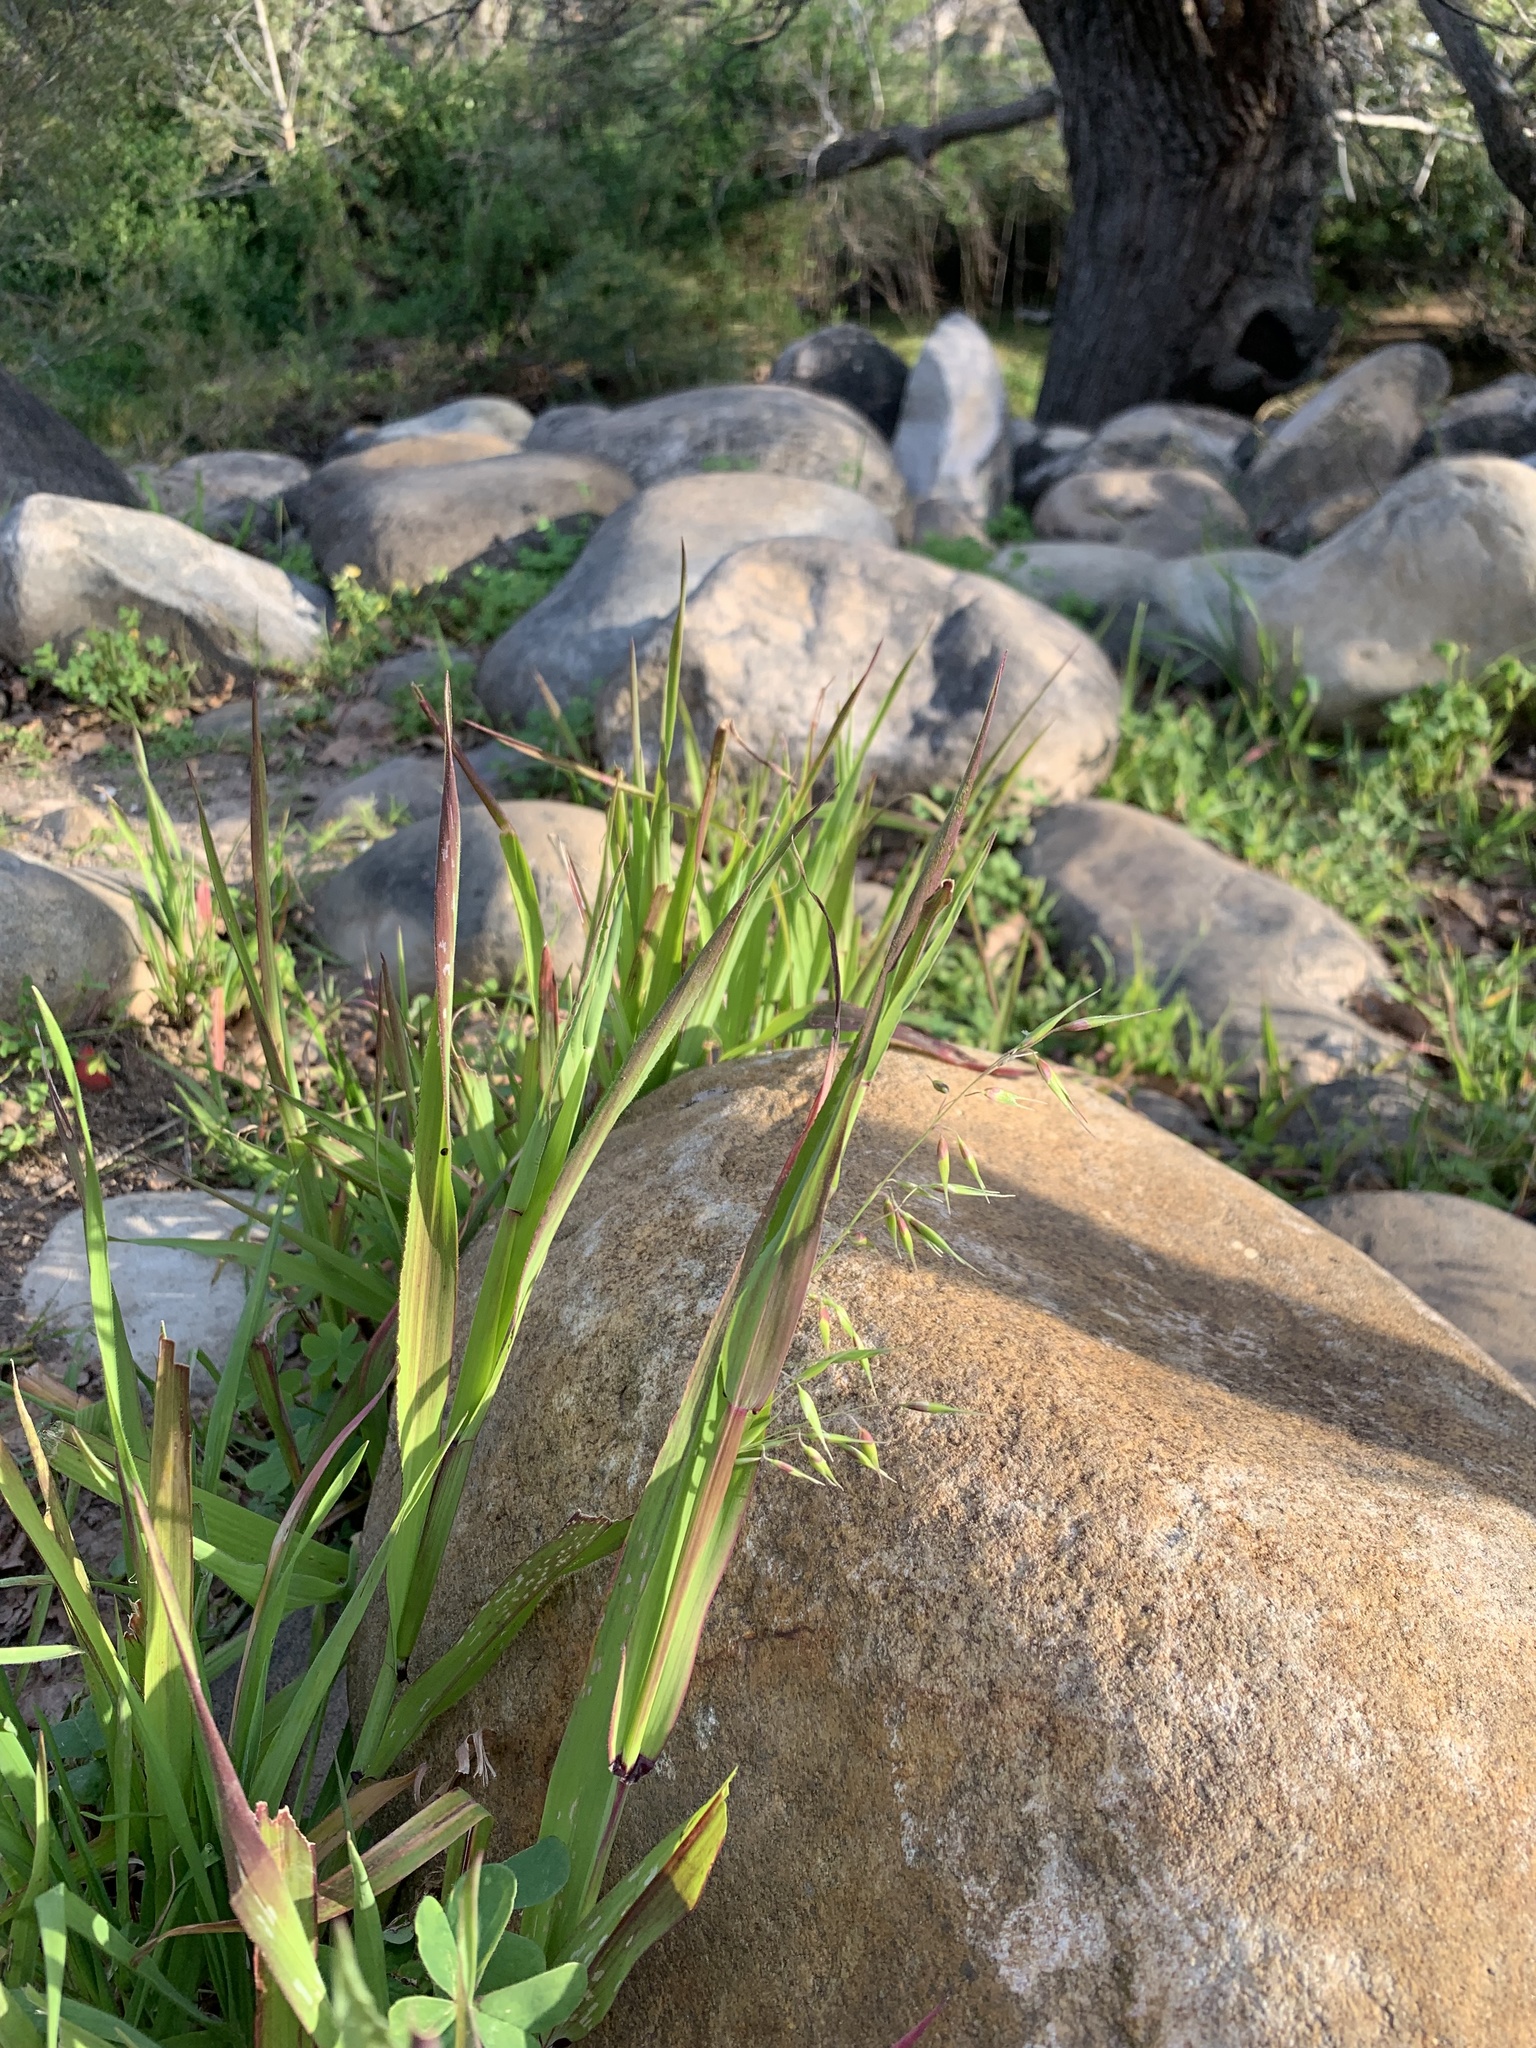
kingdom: Plantae
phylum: Tracheophyta
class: Liliopsida
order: Poales
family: Poaceae
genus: Ehrharta
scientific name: Ehrharta longiflora
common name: Longflowered veldtgrass
